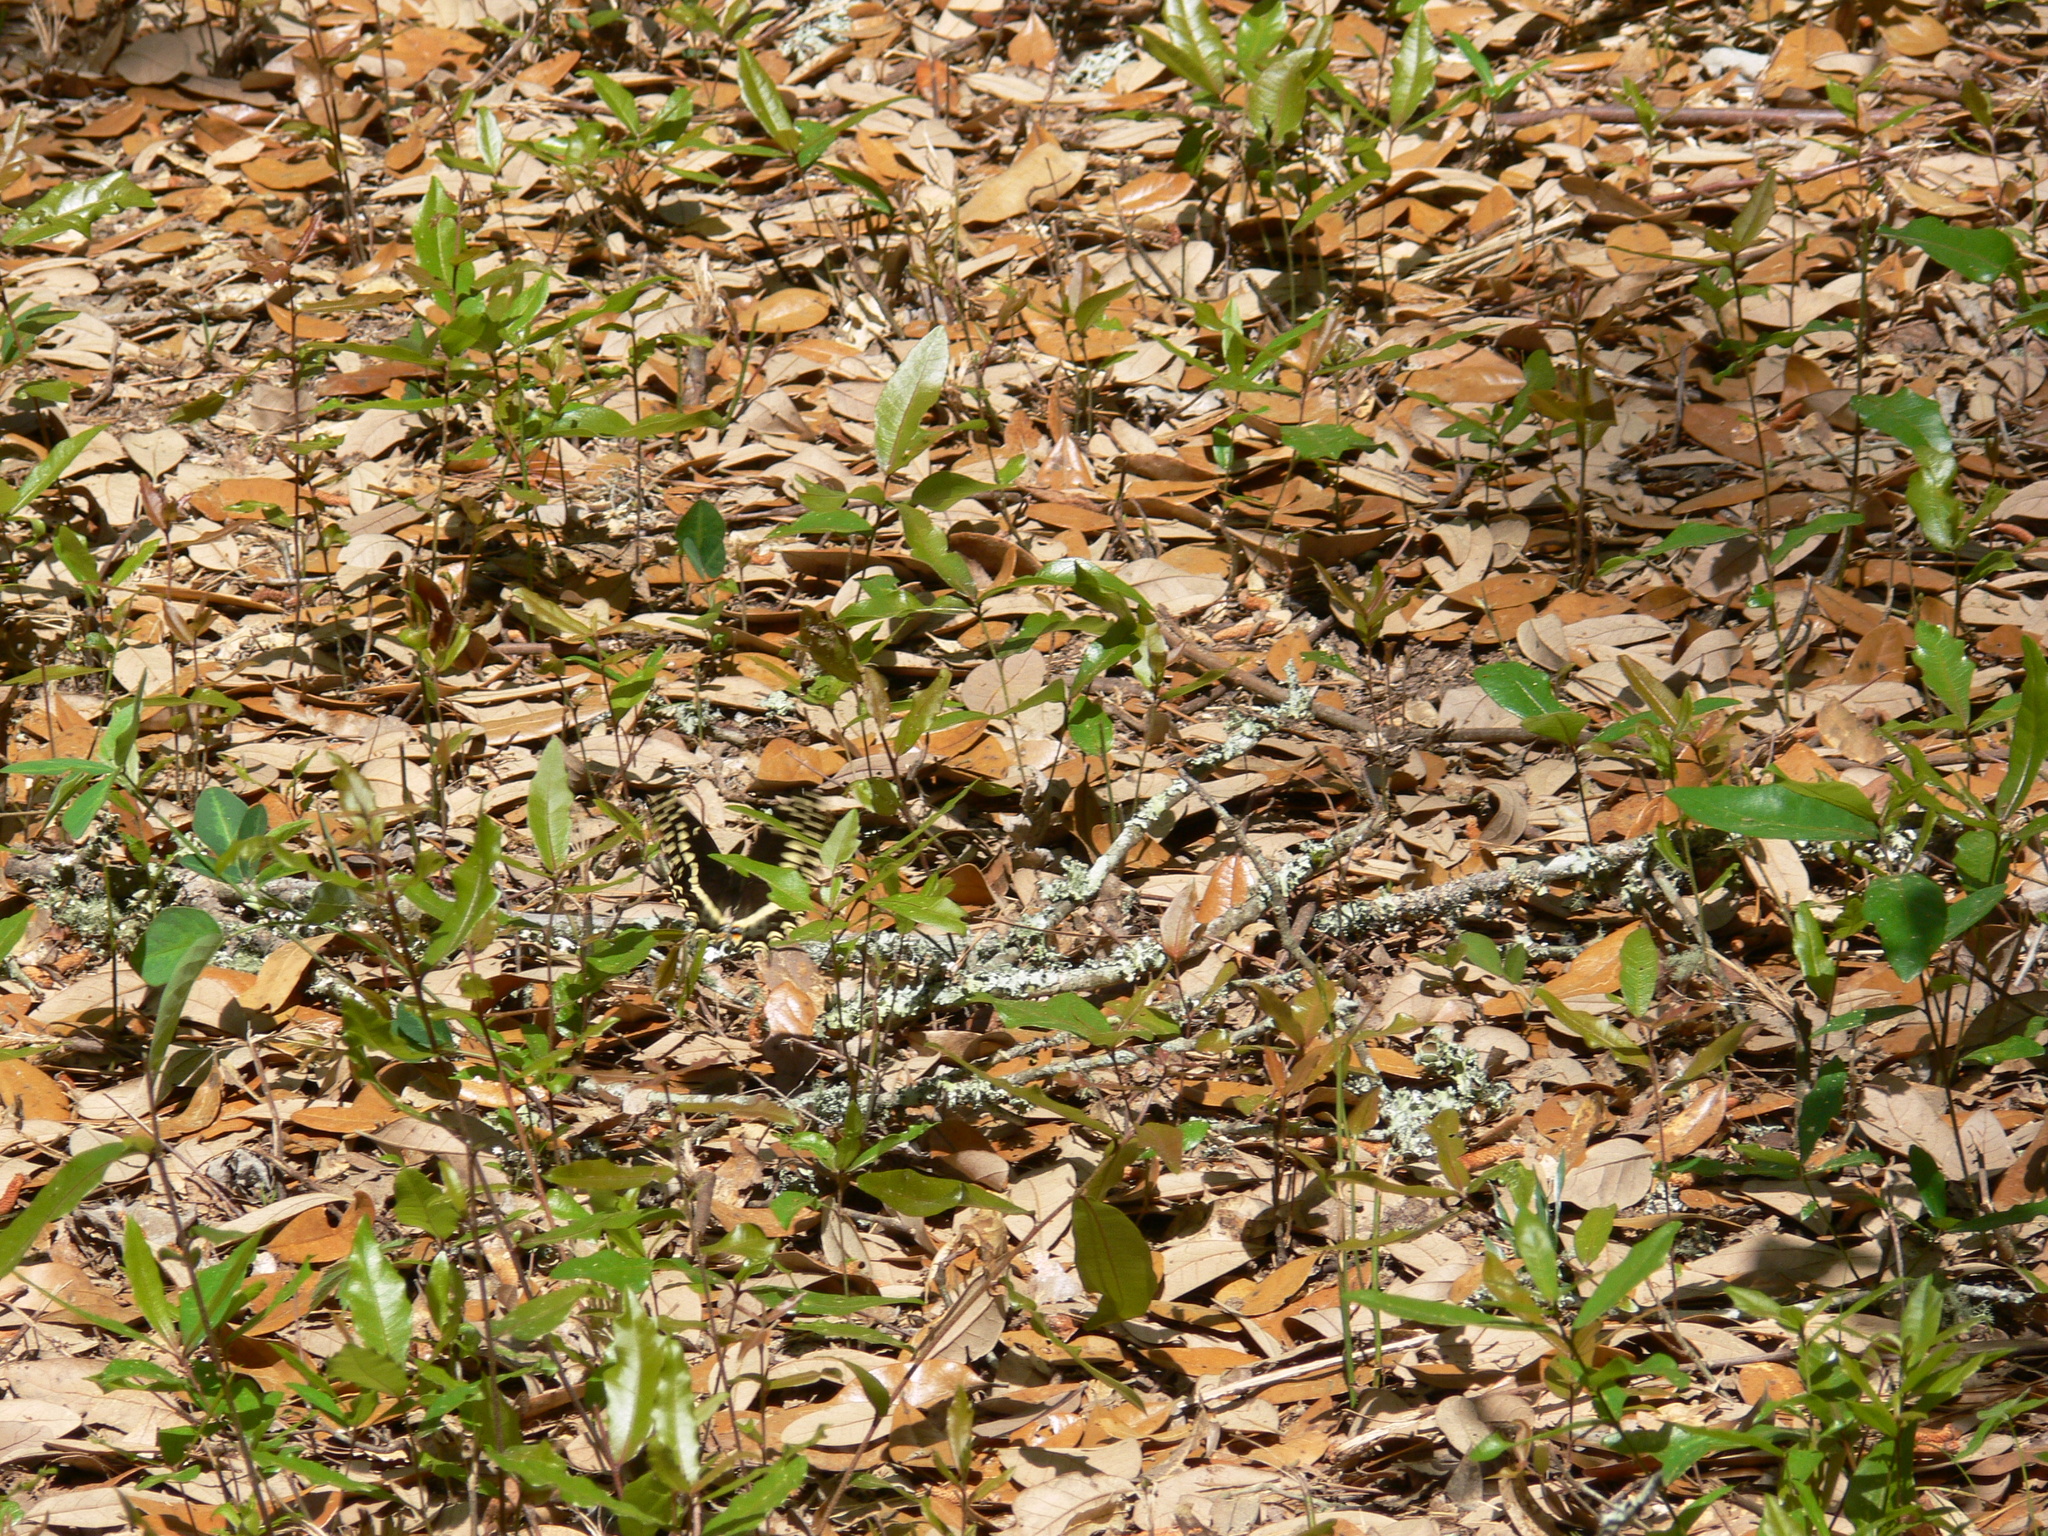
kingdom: Animalia
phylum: Arthropoda
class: Insecta
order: Lepidoptera
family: Papilionidae
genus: Papilio
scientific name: Papilio palamedes
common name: Palamedes swallowtail
